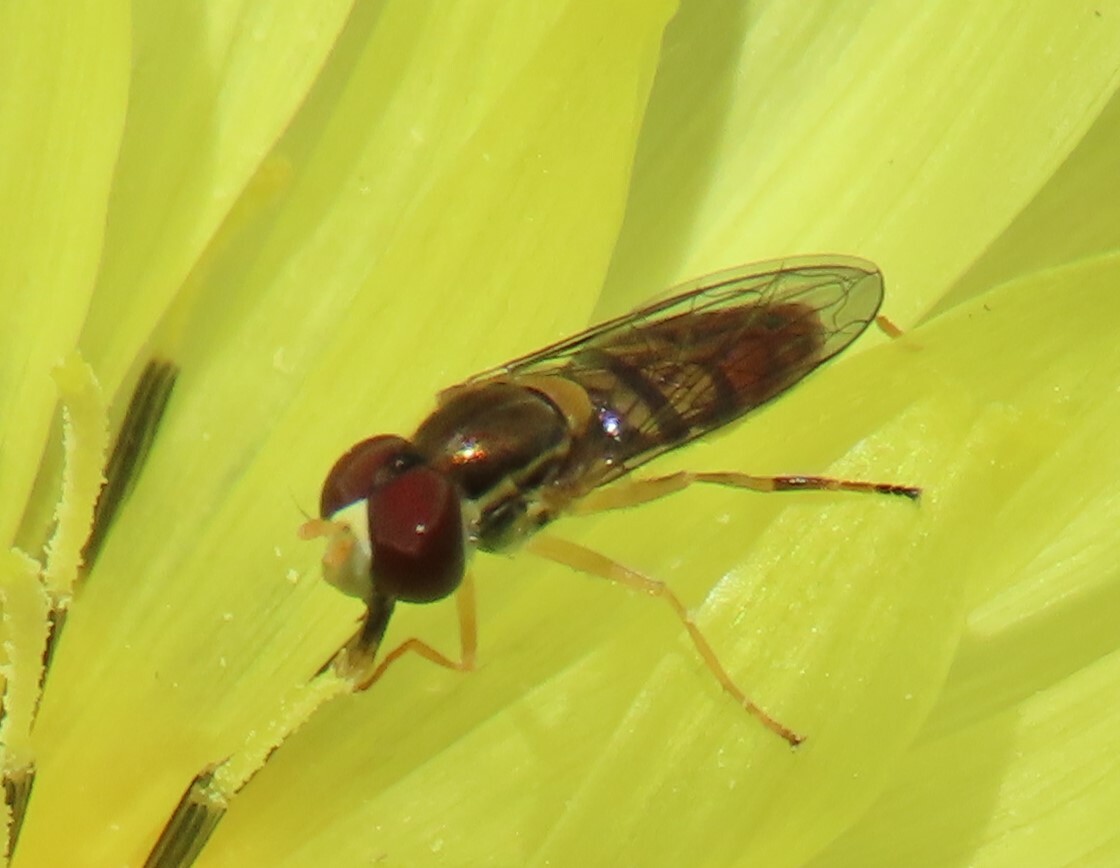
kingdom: Animalia
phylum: Arthropoda
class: Insecta
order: Diptera
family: Syrphidae
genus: Toxomerus
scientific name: Toxomerus marginatus
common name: Syrphid fly
